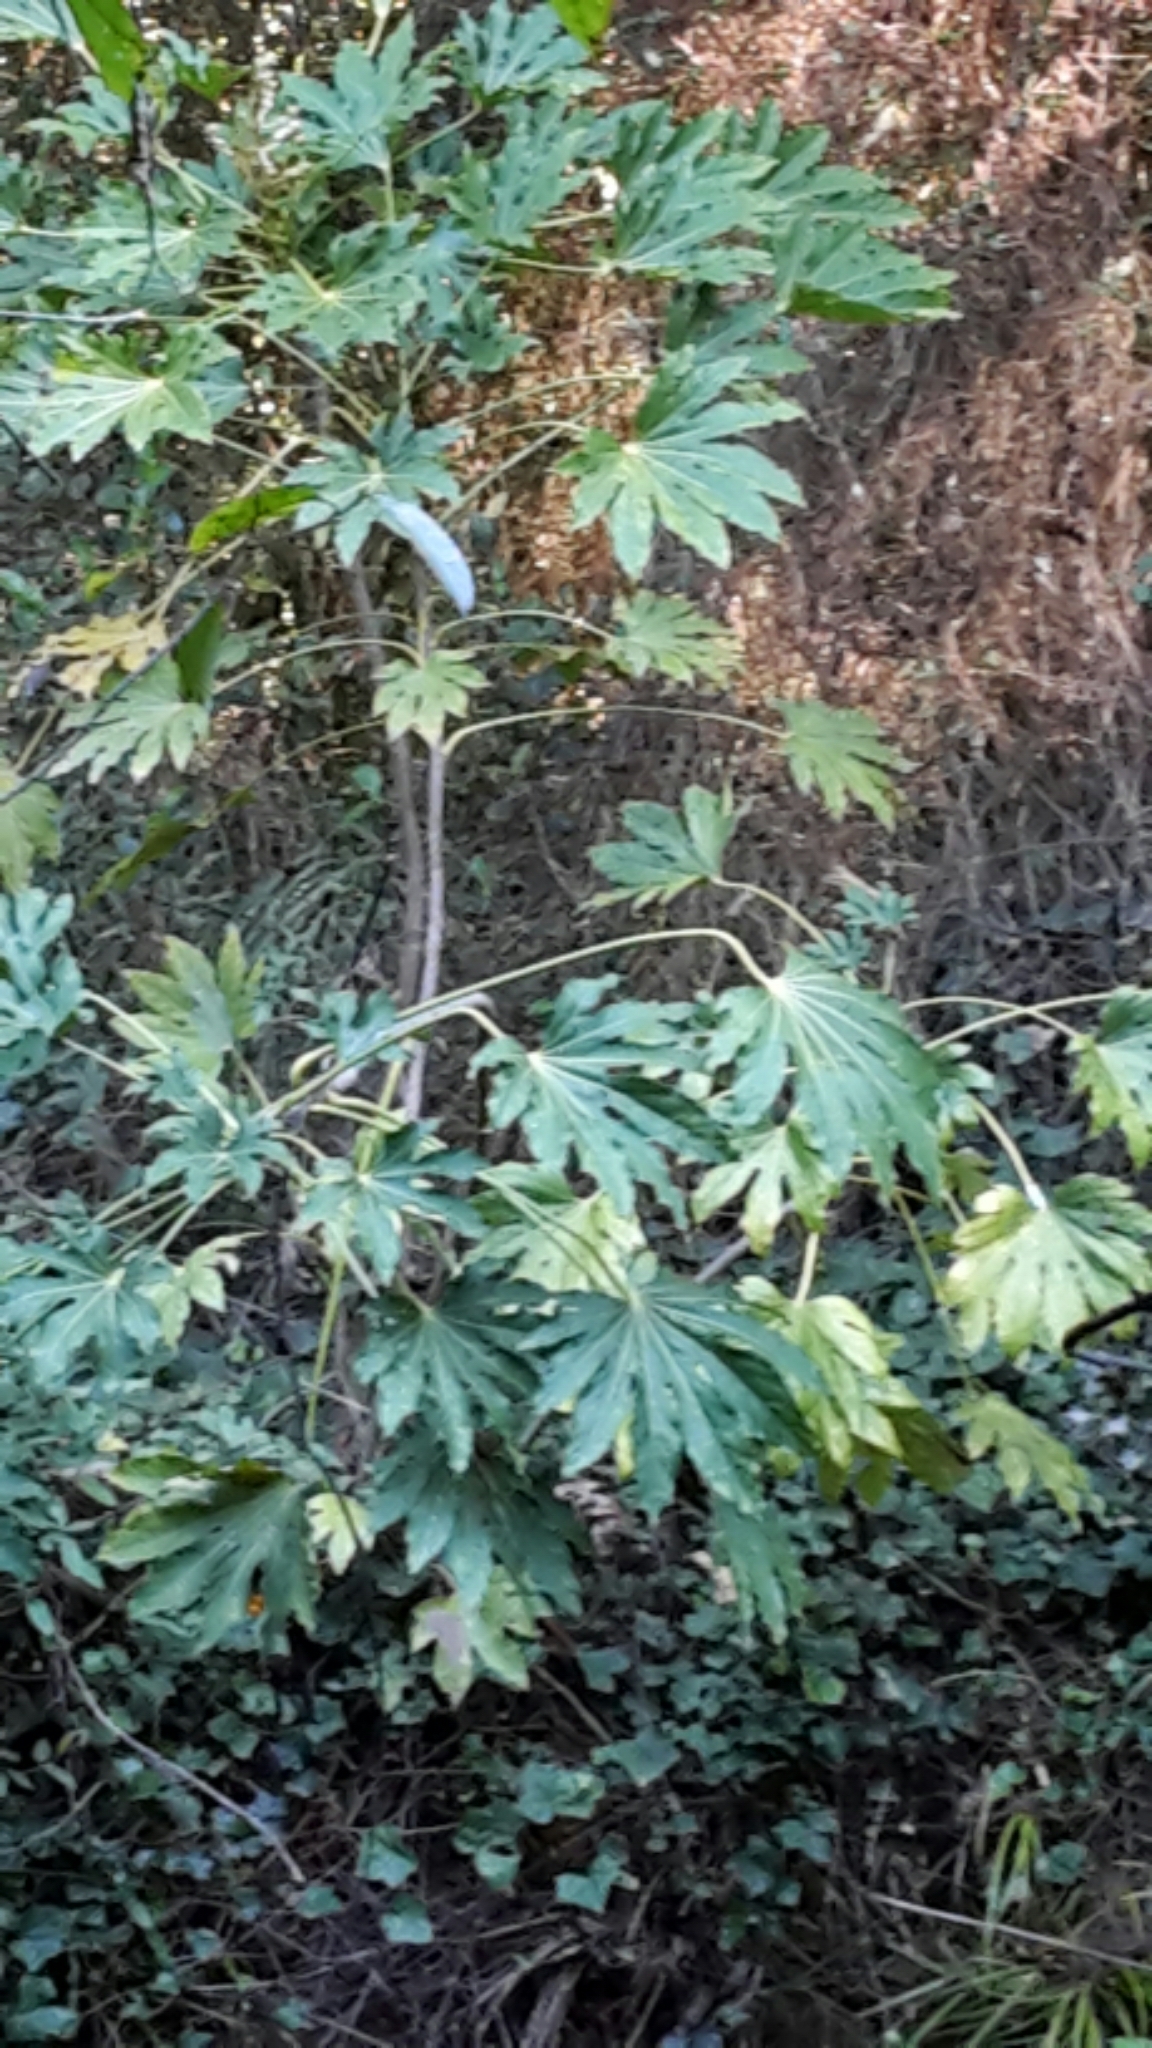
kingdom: Plantae
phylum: Tracheophyta
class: Magnoliopsida
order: Apiales
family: Araliaceae
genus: Fatsia
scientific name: Fatsia japonica
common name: Fatsia
